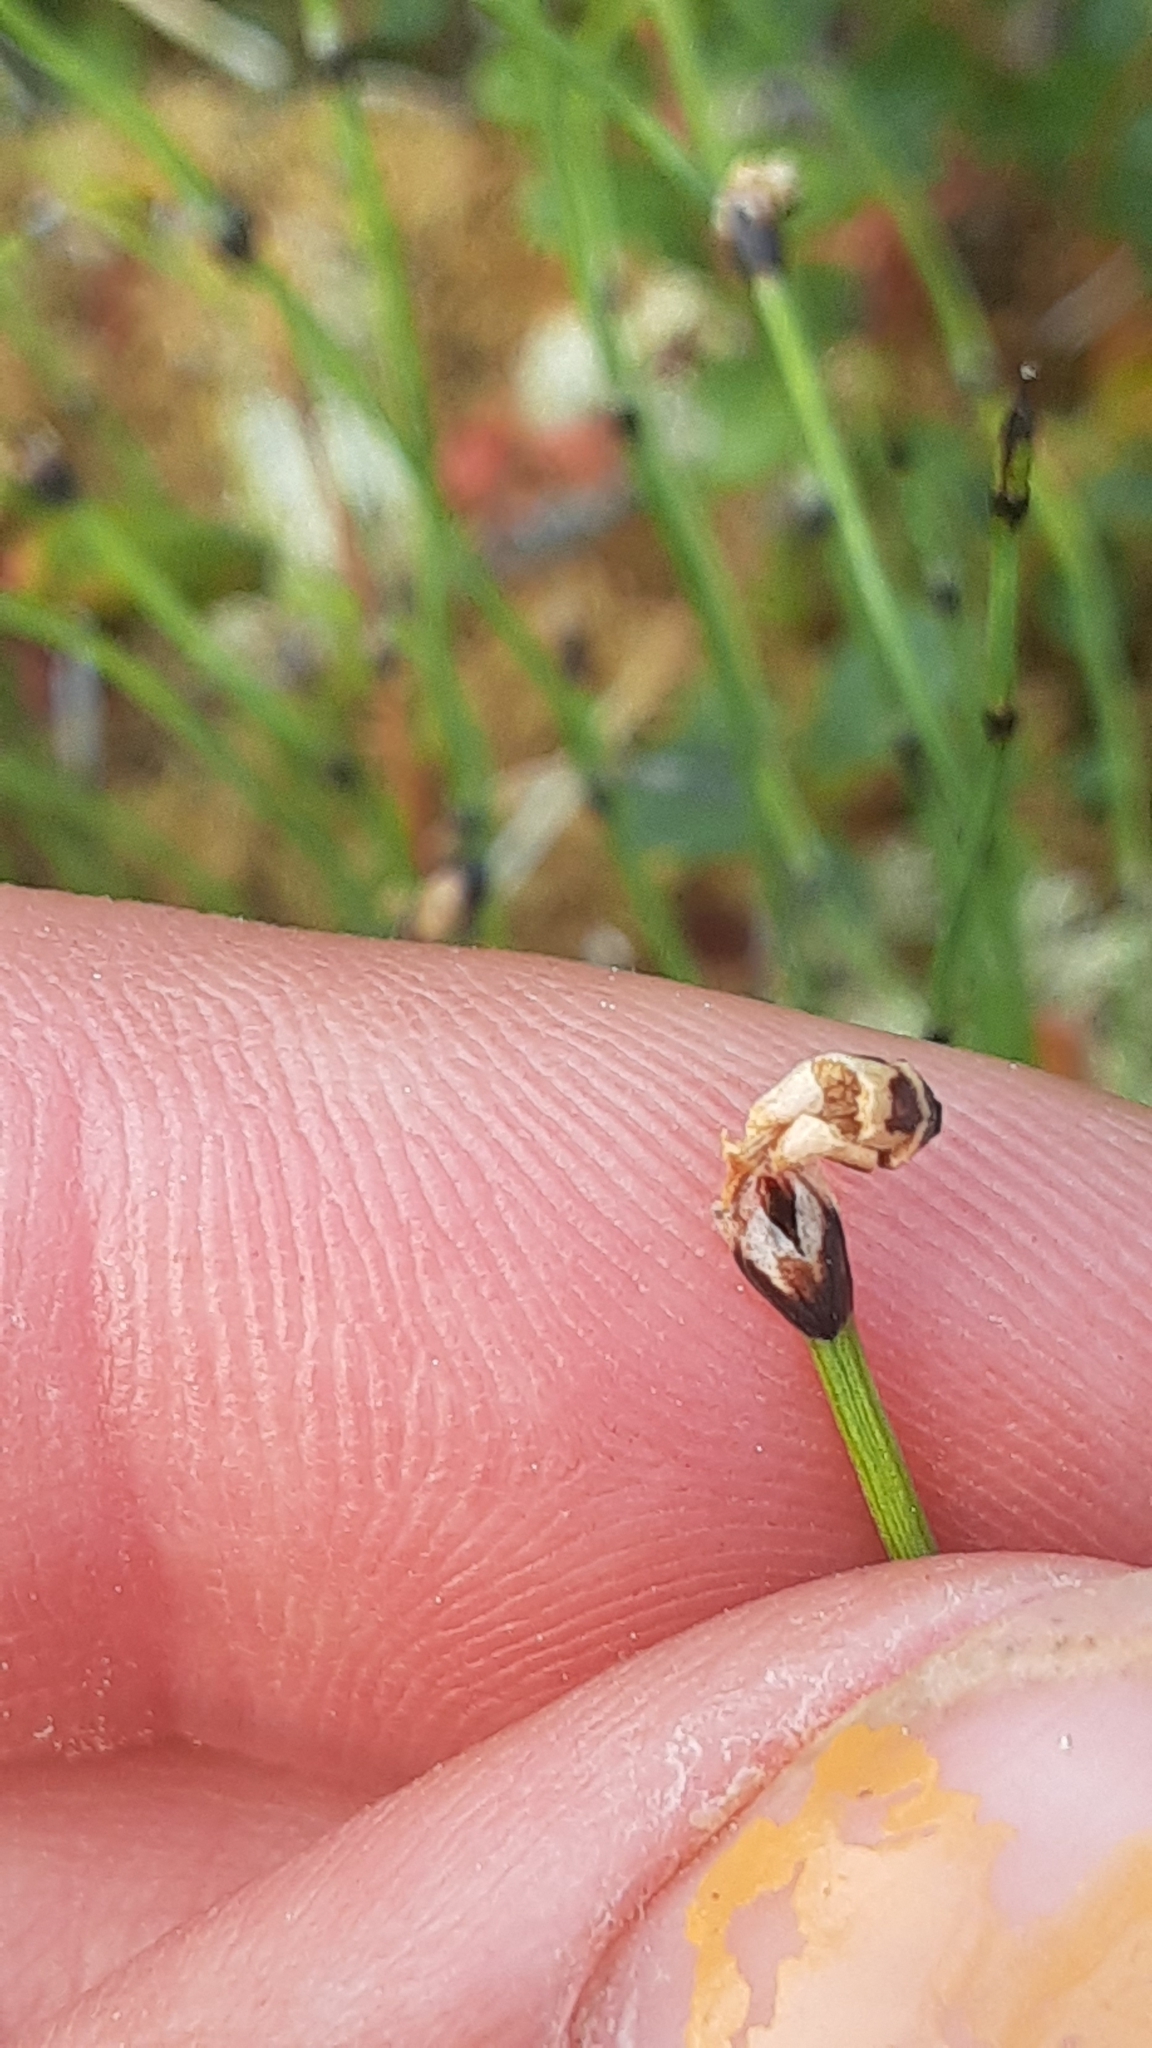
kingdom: Plantae
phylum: Tracheophyta
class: Polypodiopsida
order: Equisetales
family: Equisetaceae
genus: Equisetum
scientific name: Equisetum scirpoides
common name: Delicate horsetail
